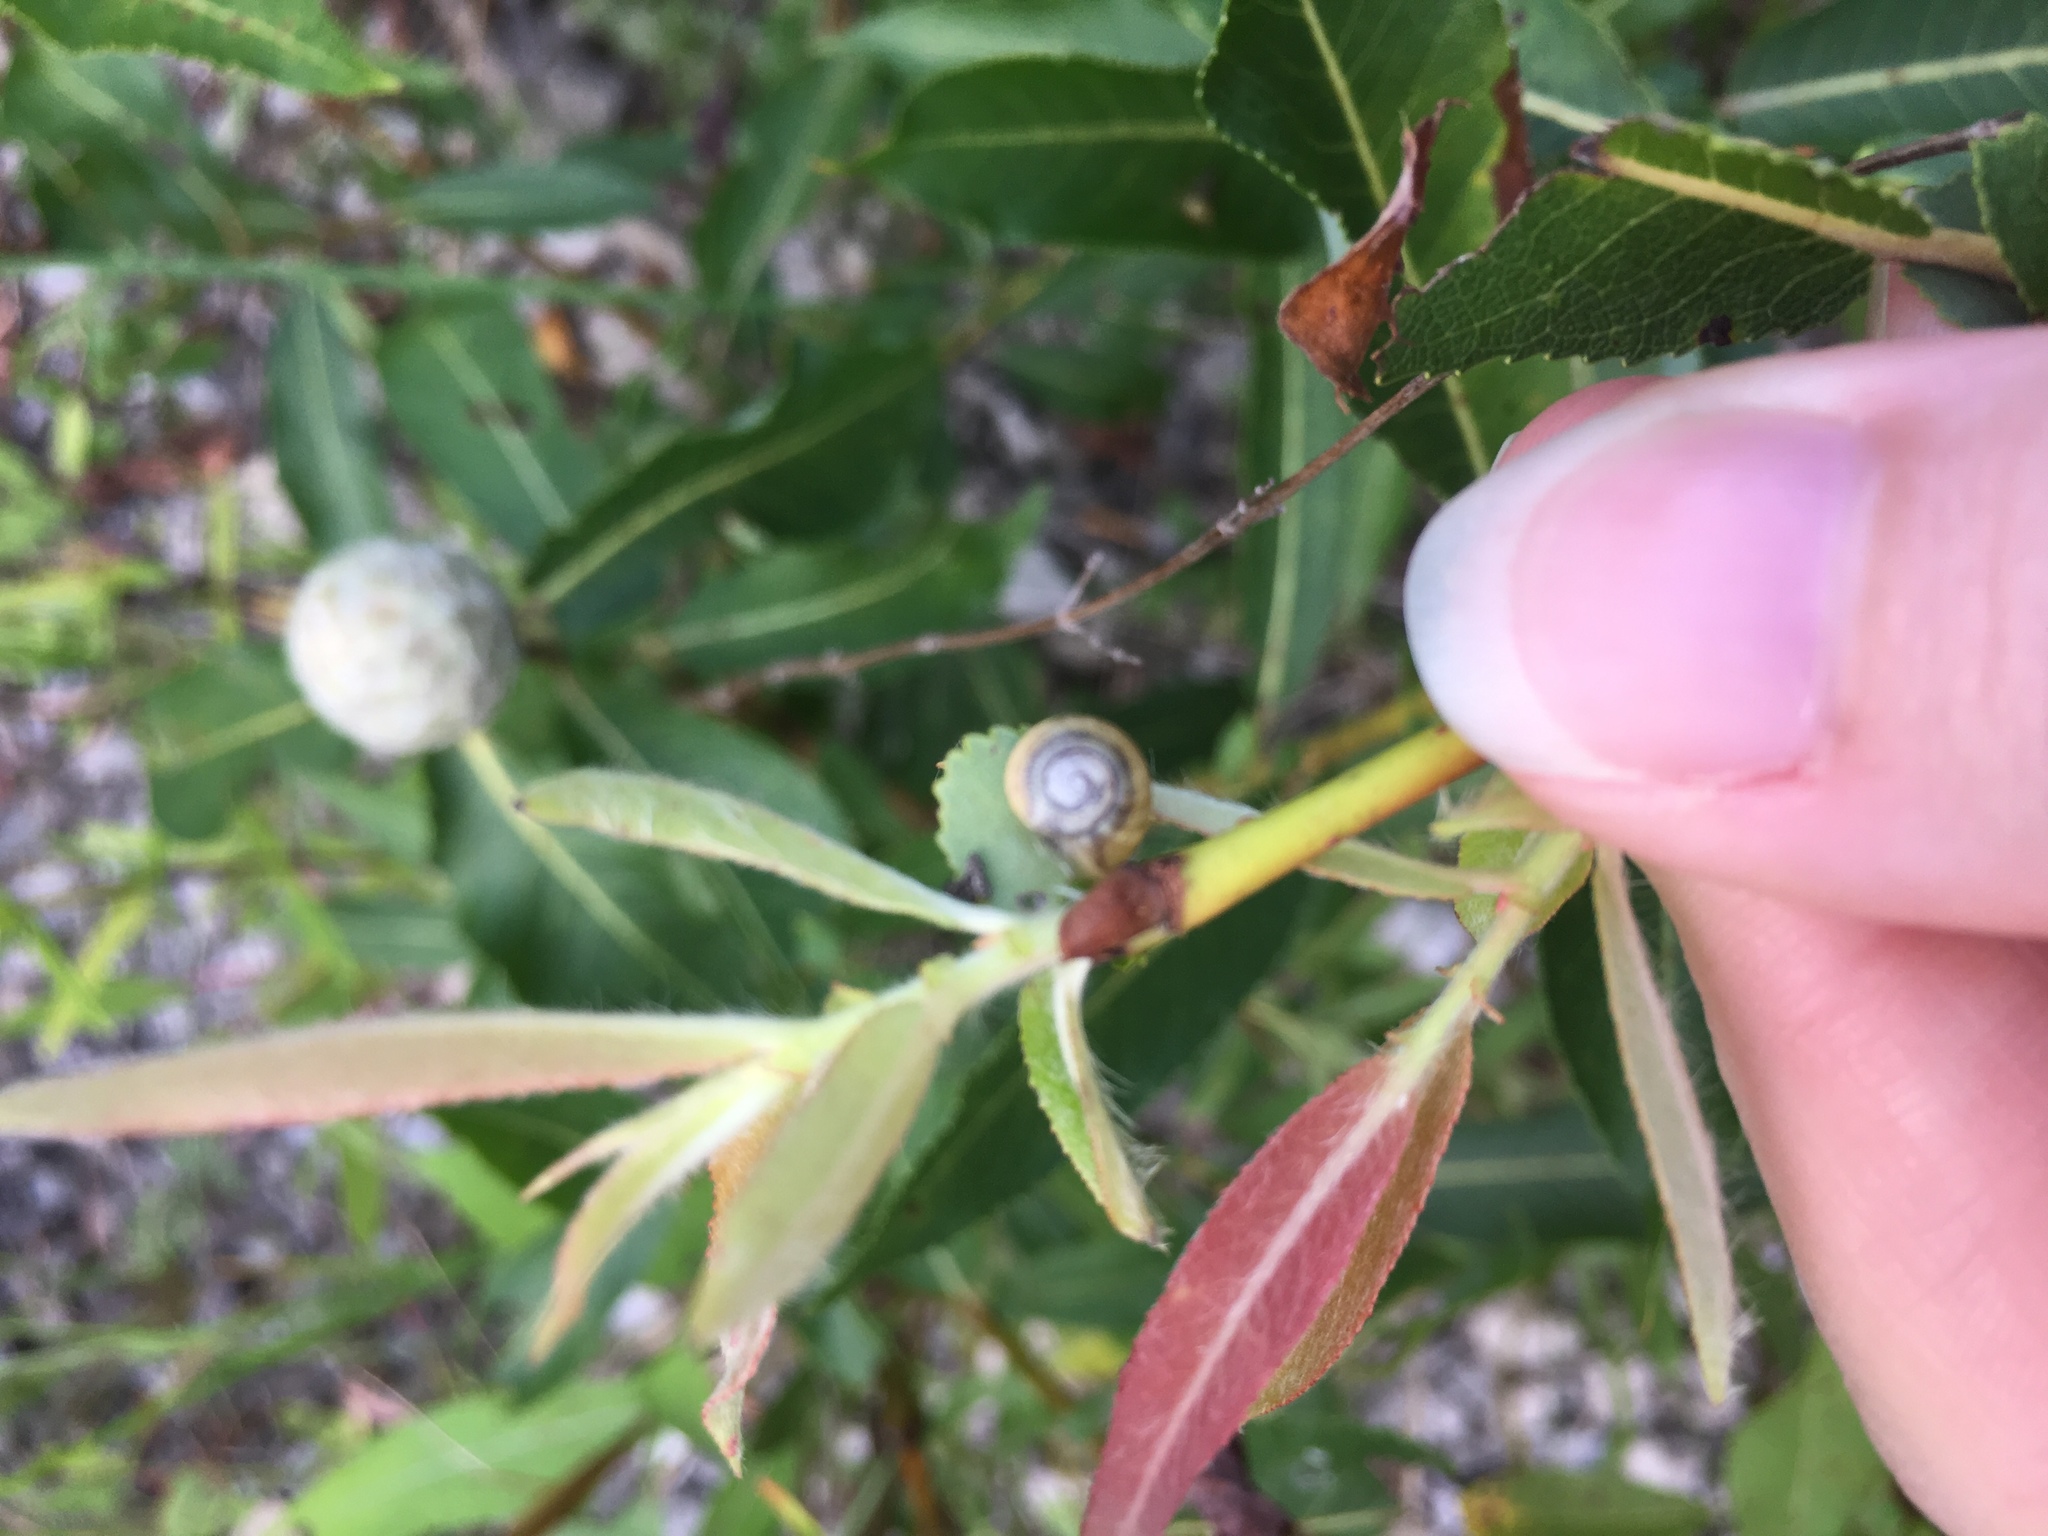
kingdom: Animalia
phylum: Mollusca
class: Gastropoda
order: Stylommatophora
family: Helicidae
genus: Cepaea
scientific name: Cepaea nemoralis
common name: Grovesnail
